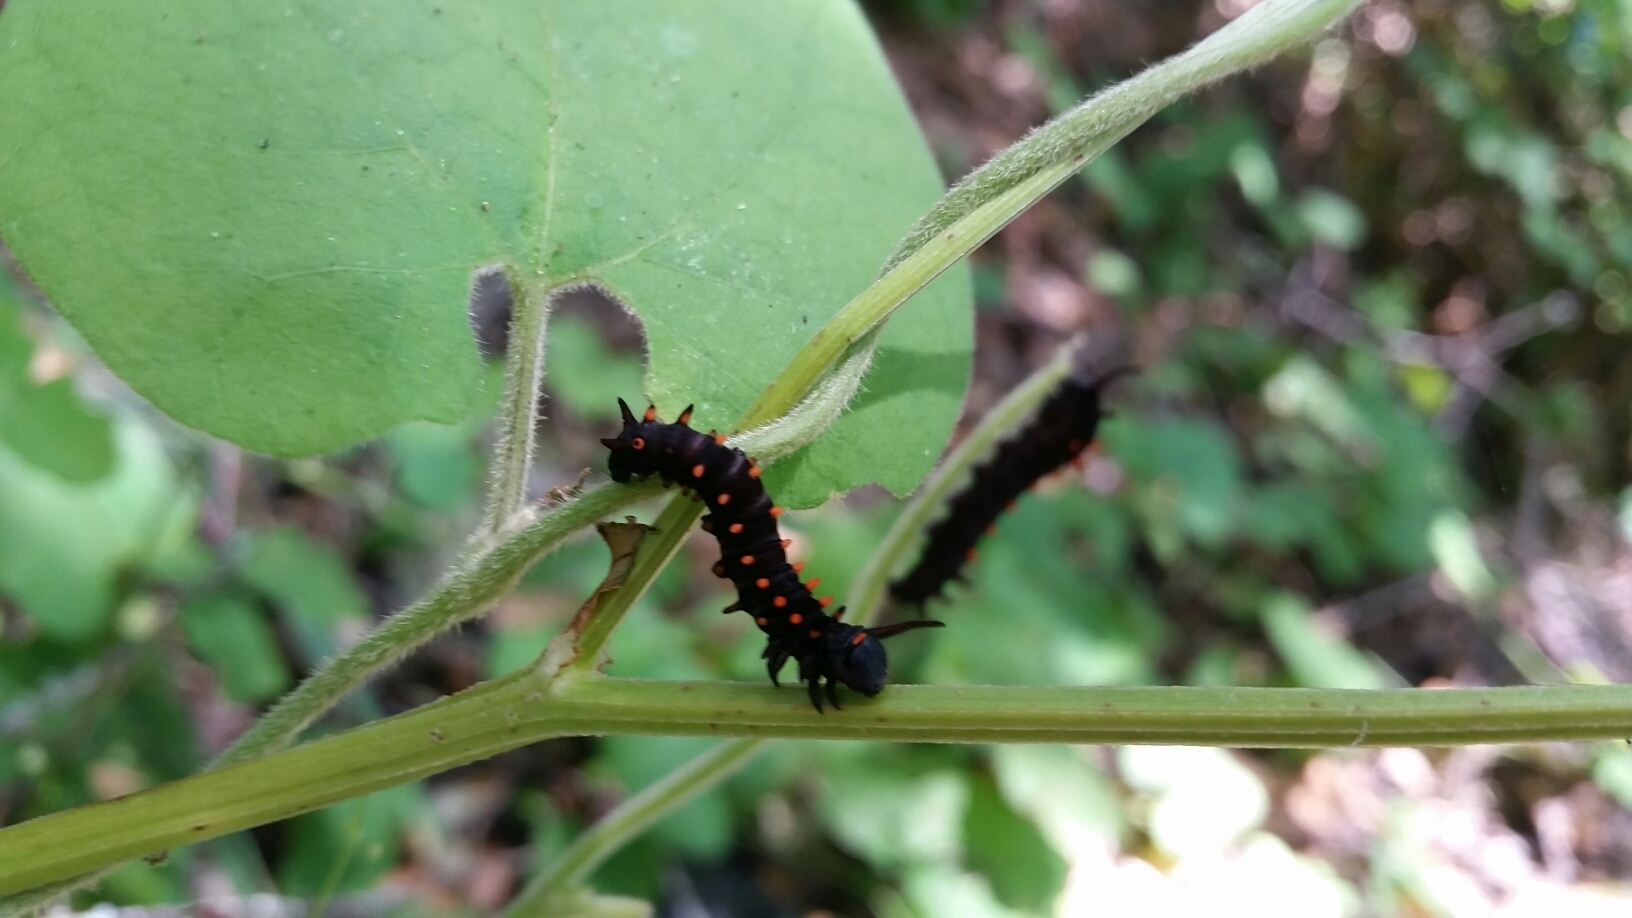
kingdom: Animalia
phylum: Arthropoda
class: Insecta
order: Lepidoptera
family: Papilionidae
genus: Battus
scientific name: Battus philenor
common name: Pipevine swallowtail
